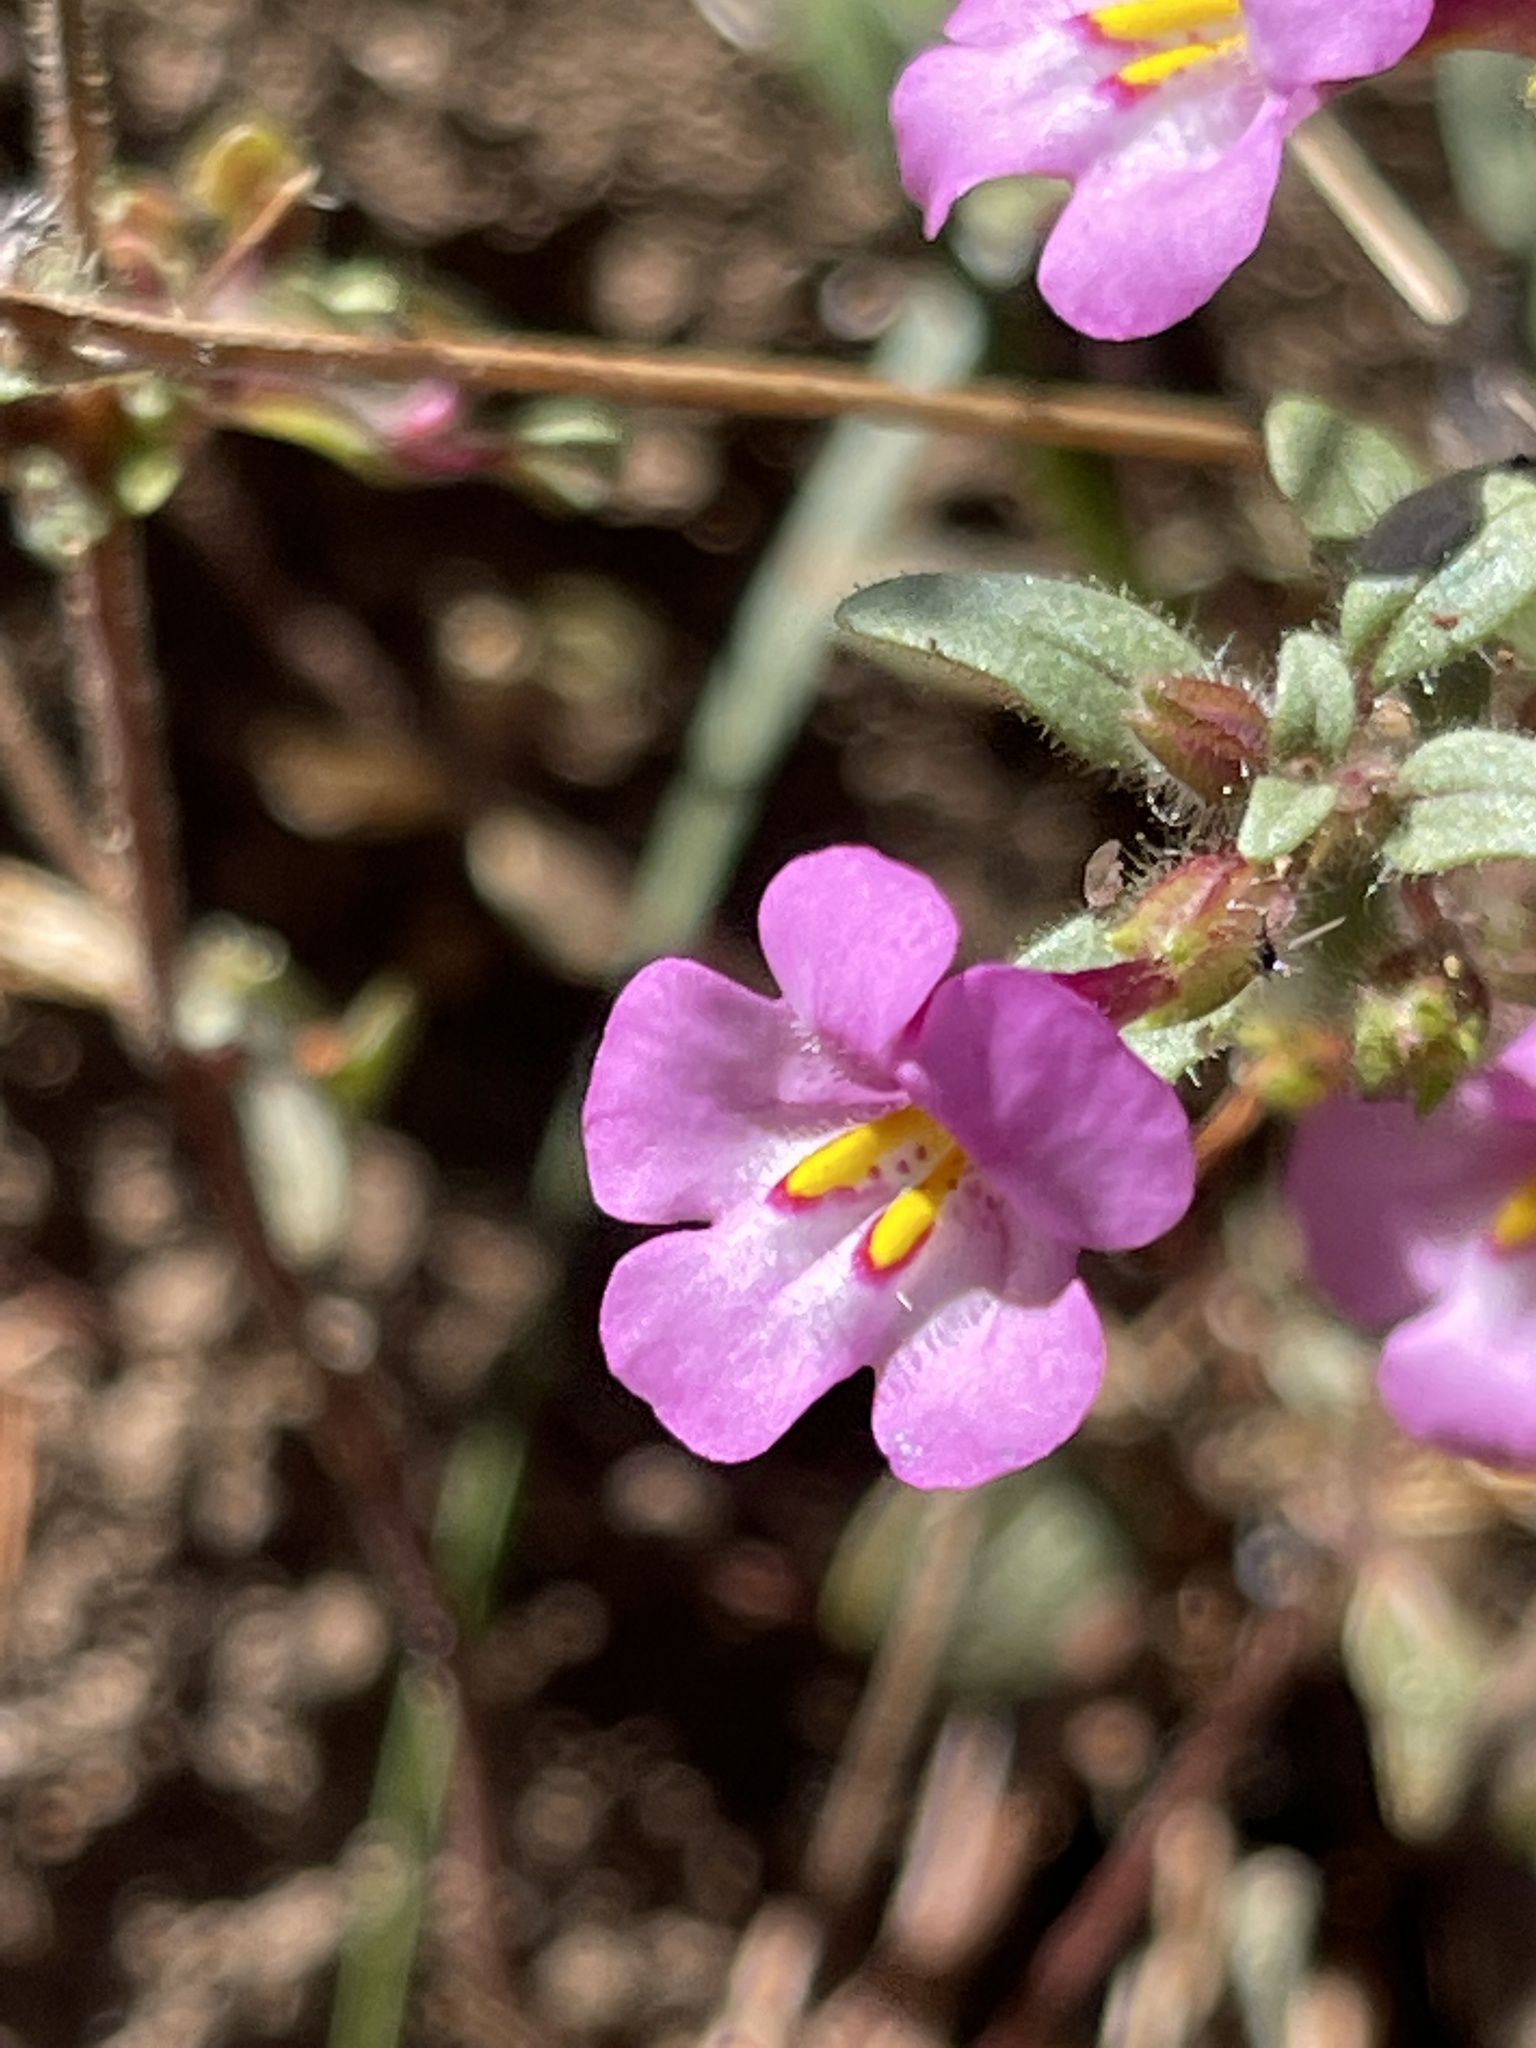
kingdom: Plantae
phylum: Tracheophyta
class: Magnoliopsida
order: Lamiales
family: Phrymaceae
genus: Diplacus
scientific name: Diplacus torreyi
